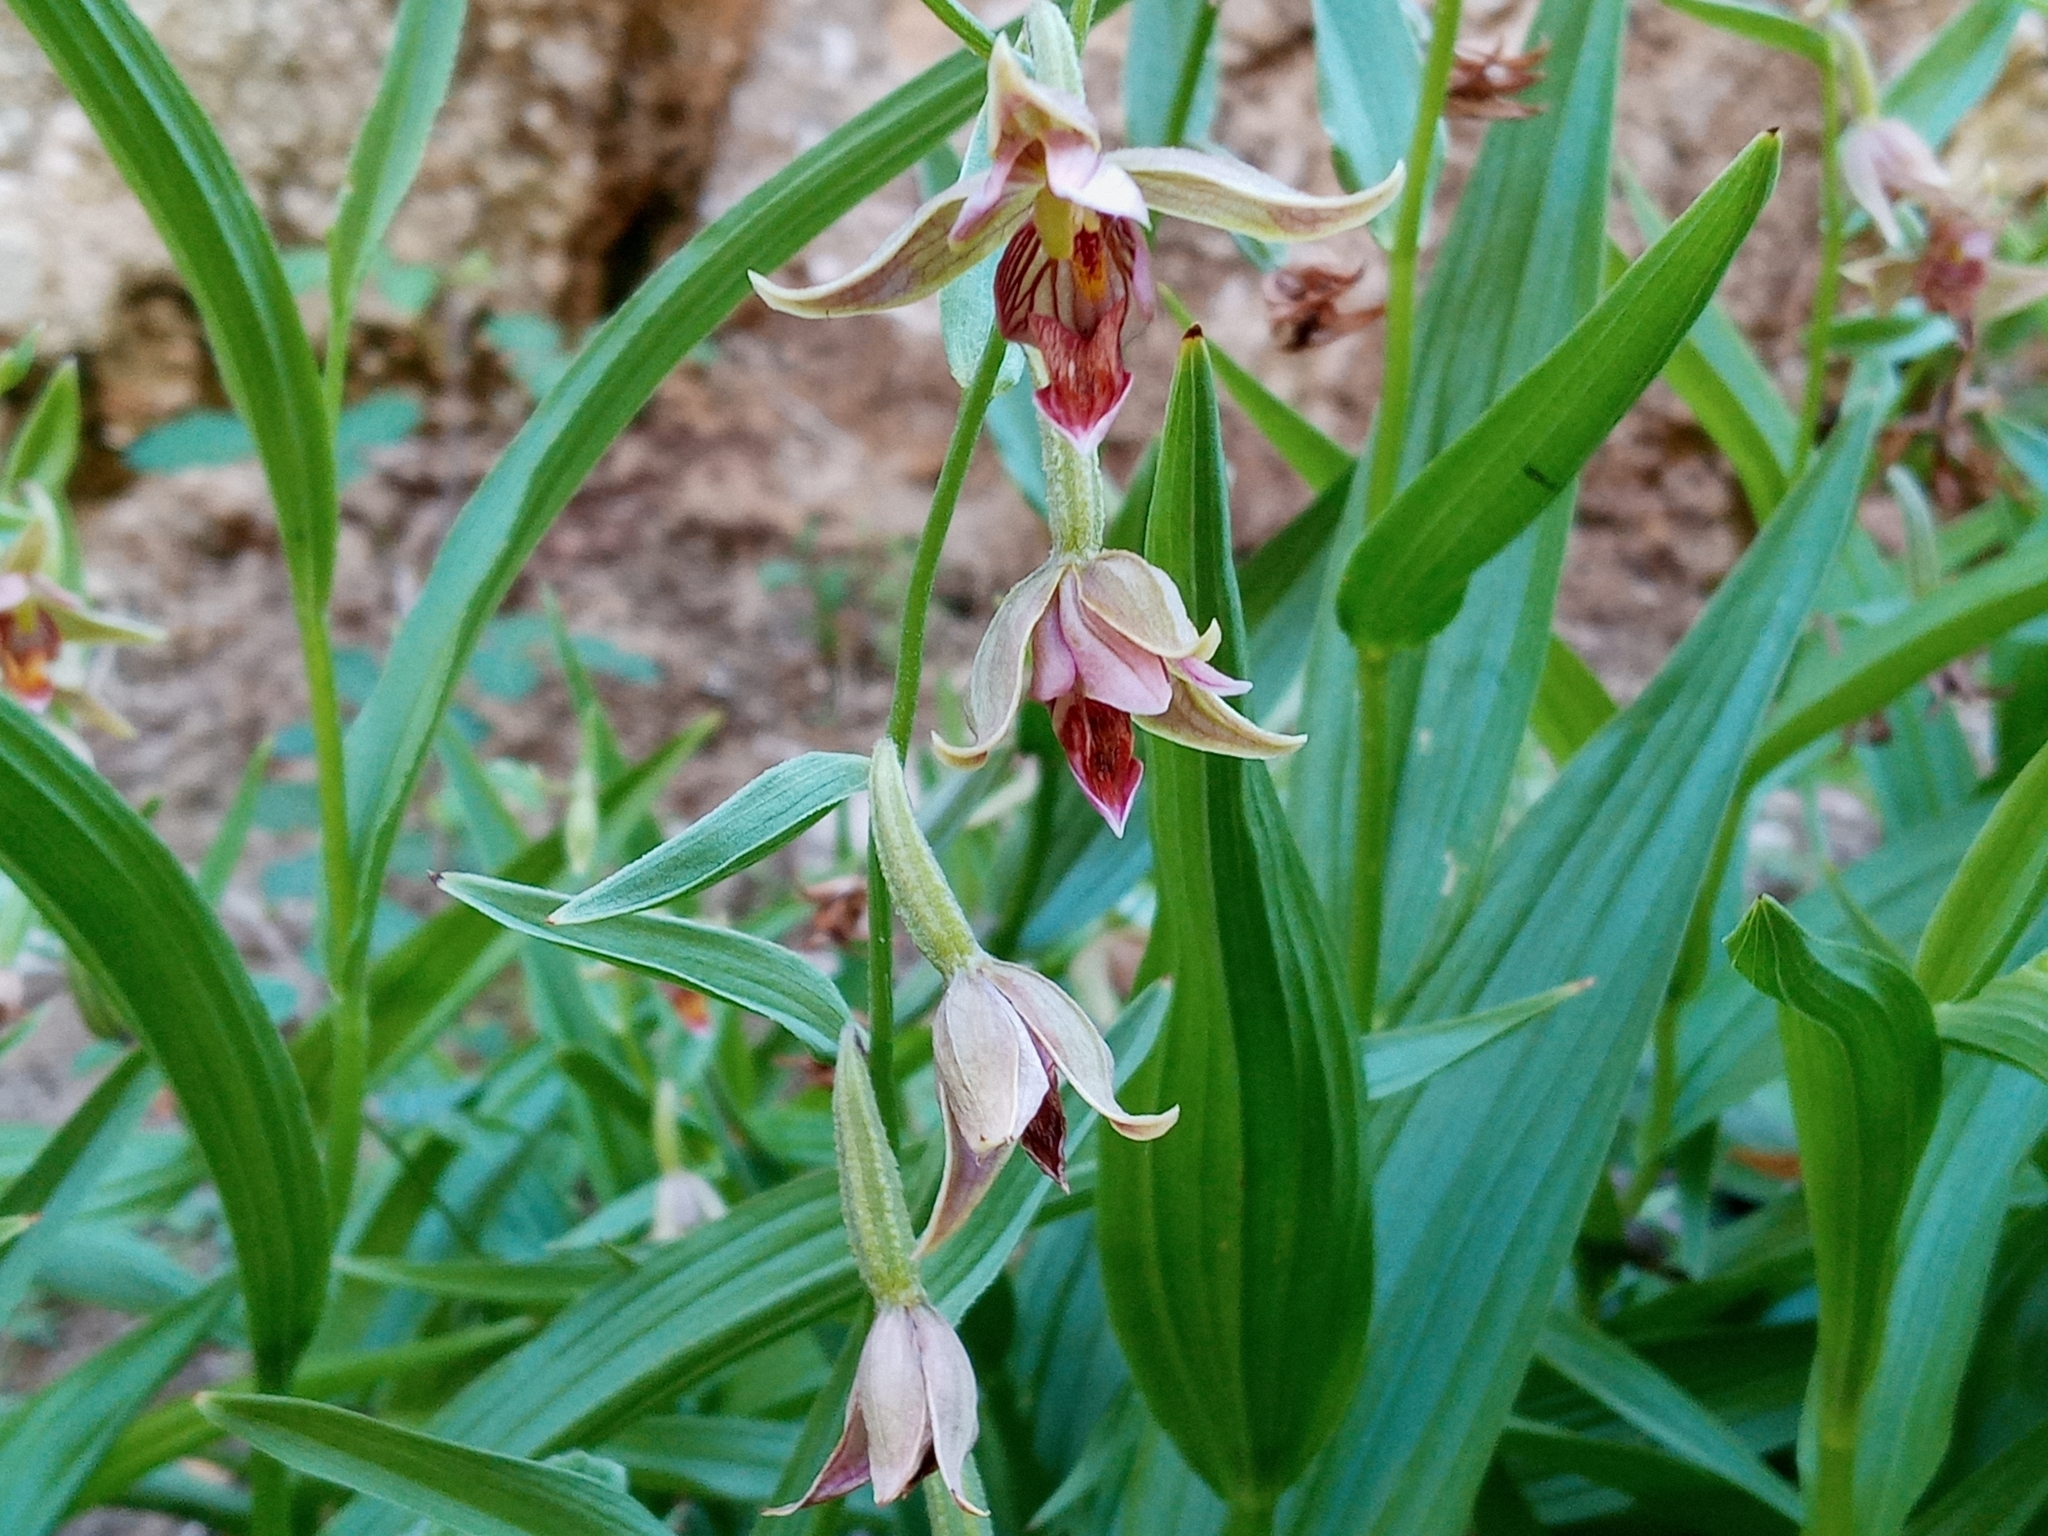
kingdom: Plantae
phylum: Tracheophyta
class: Liliopsida
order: Asparagales
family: Orchidaceae
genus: Epipactis
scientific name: Epipactis gigantea
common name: Chatterbox
